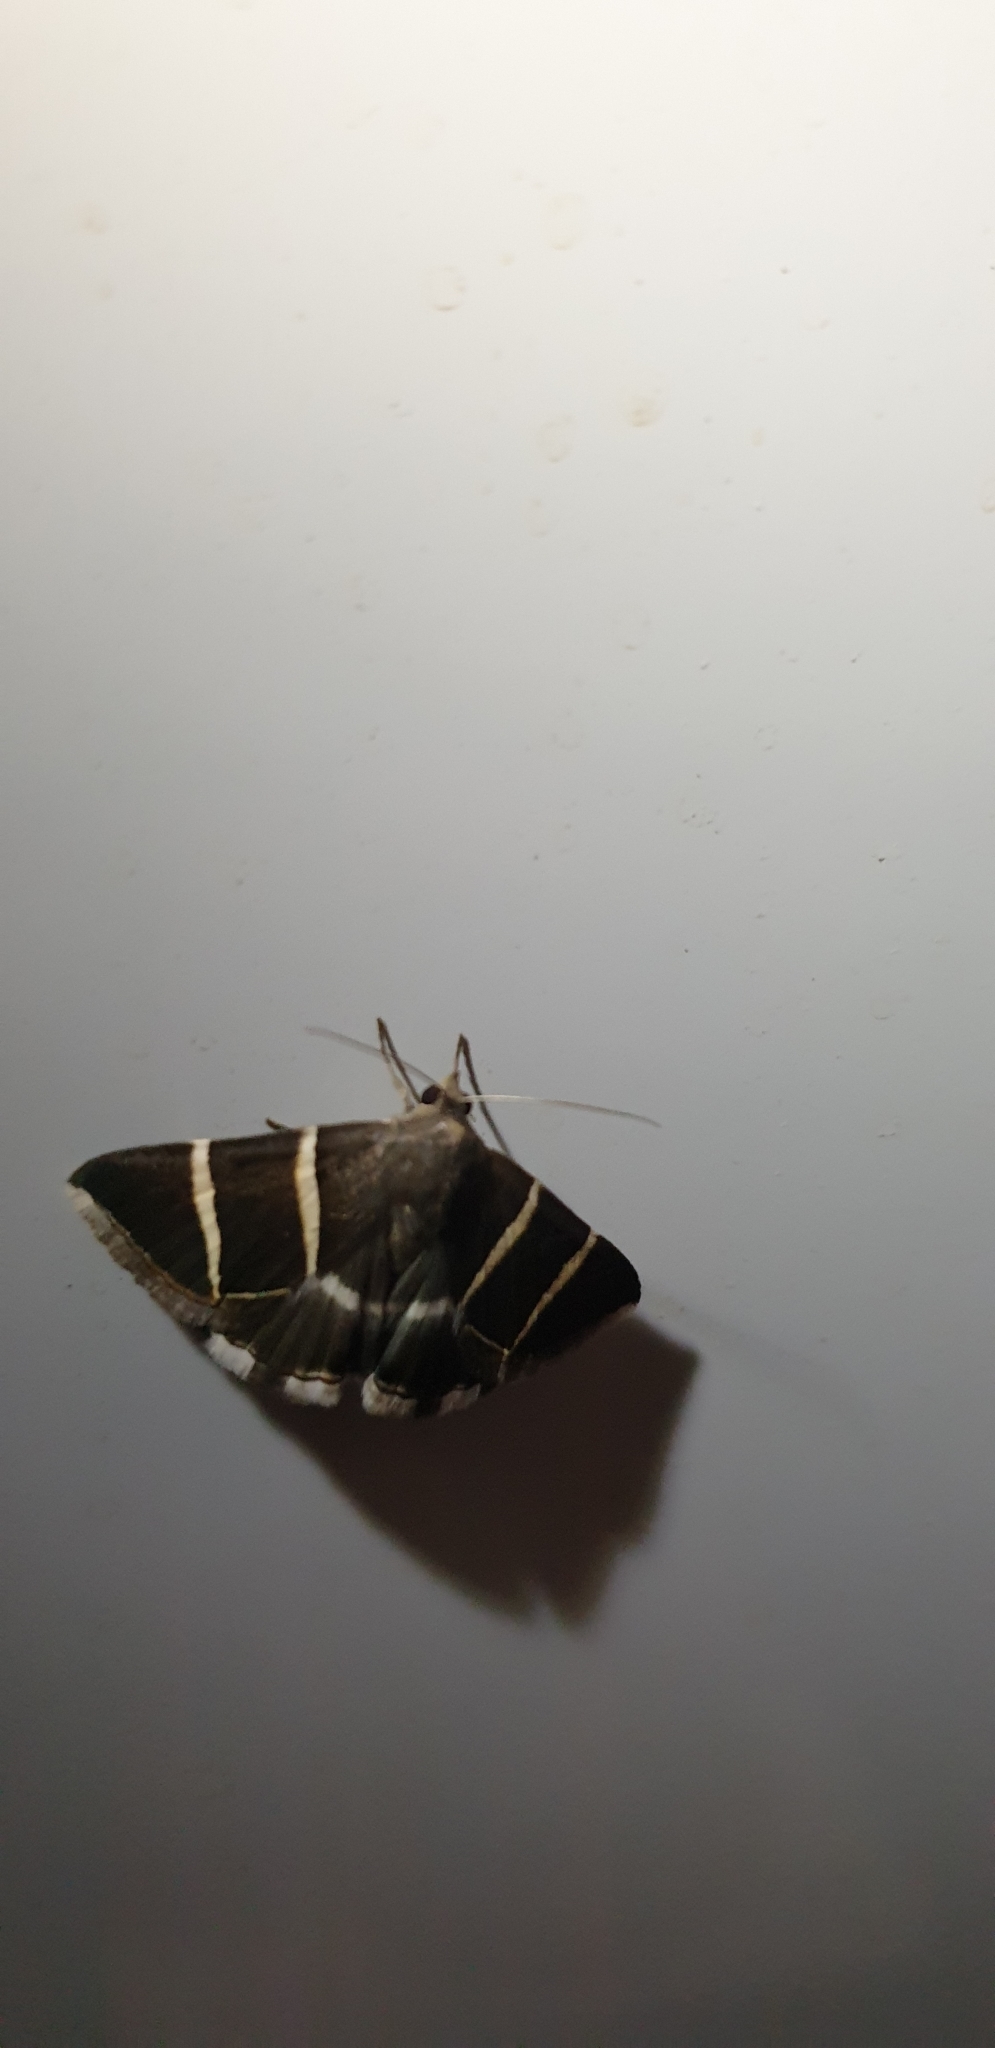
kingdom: Animalia
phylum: Arthropoda
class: Insecta
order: Lepidoptera
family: Erebidae
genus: Grammodes
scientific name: Grammodes justa
